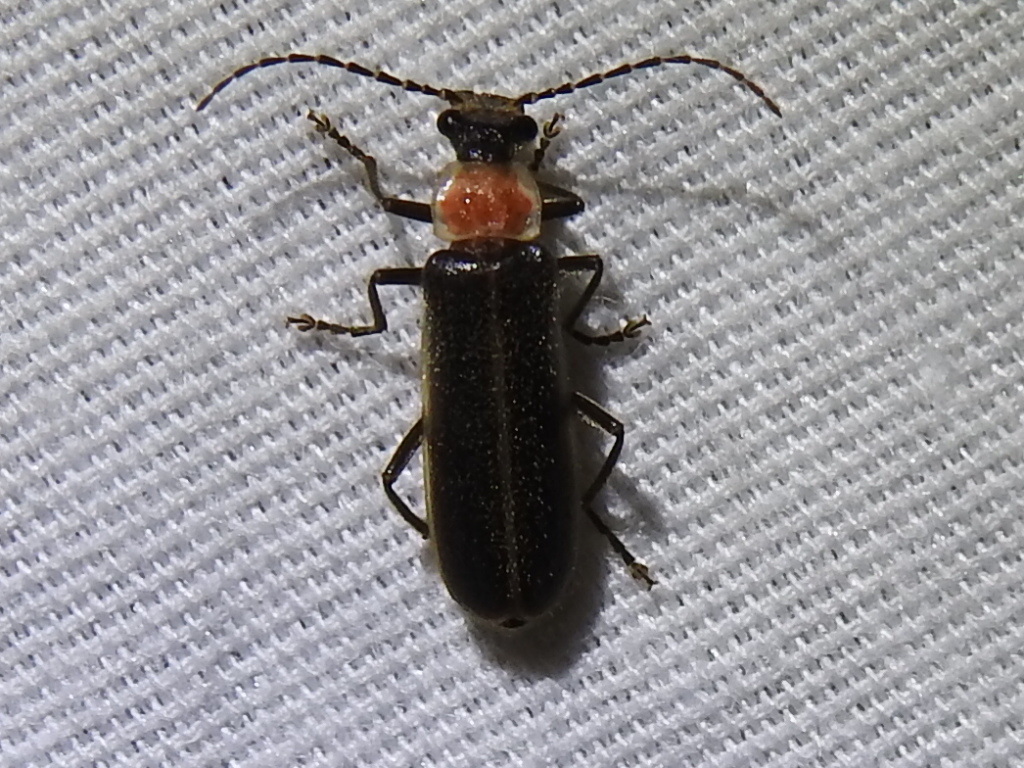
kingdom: Animalia
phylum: Arthropoda
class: Insecta
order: Coleoptera
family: Cantharidae
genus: Podabrus
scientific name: Podabrus flavicollis
